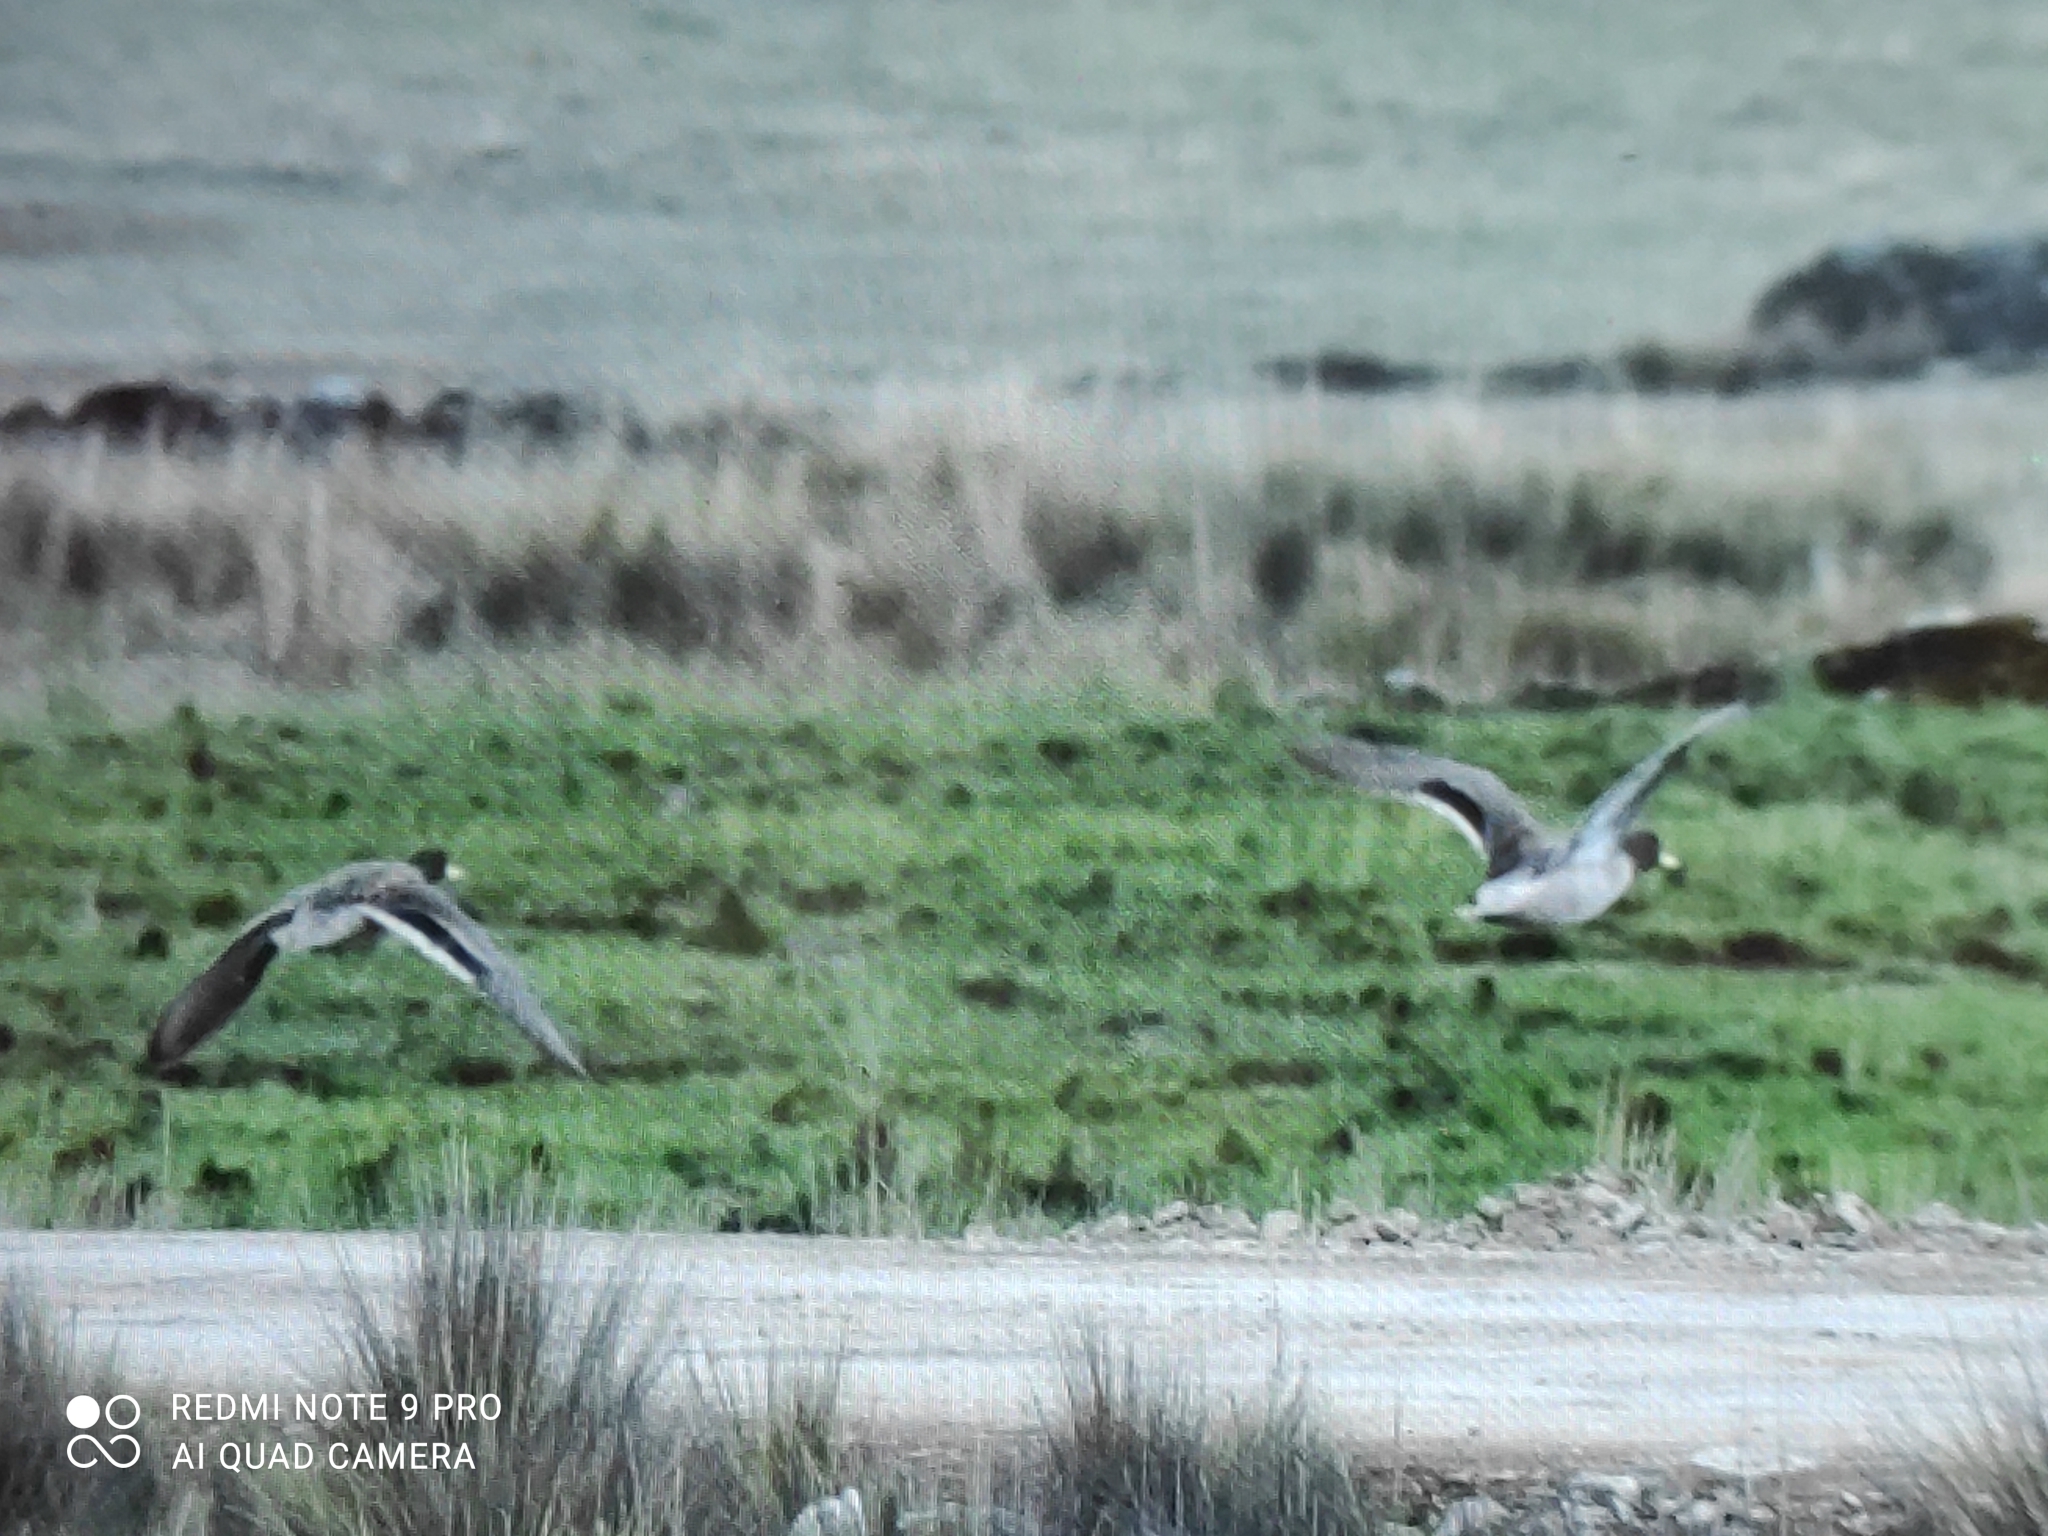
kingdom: Animalia
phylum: Chordata
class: Aves
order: Anseriformes
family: Anatidae
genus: Anas
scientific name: Anas flavirostris
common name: Yellow-billed teal
